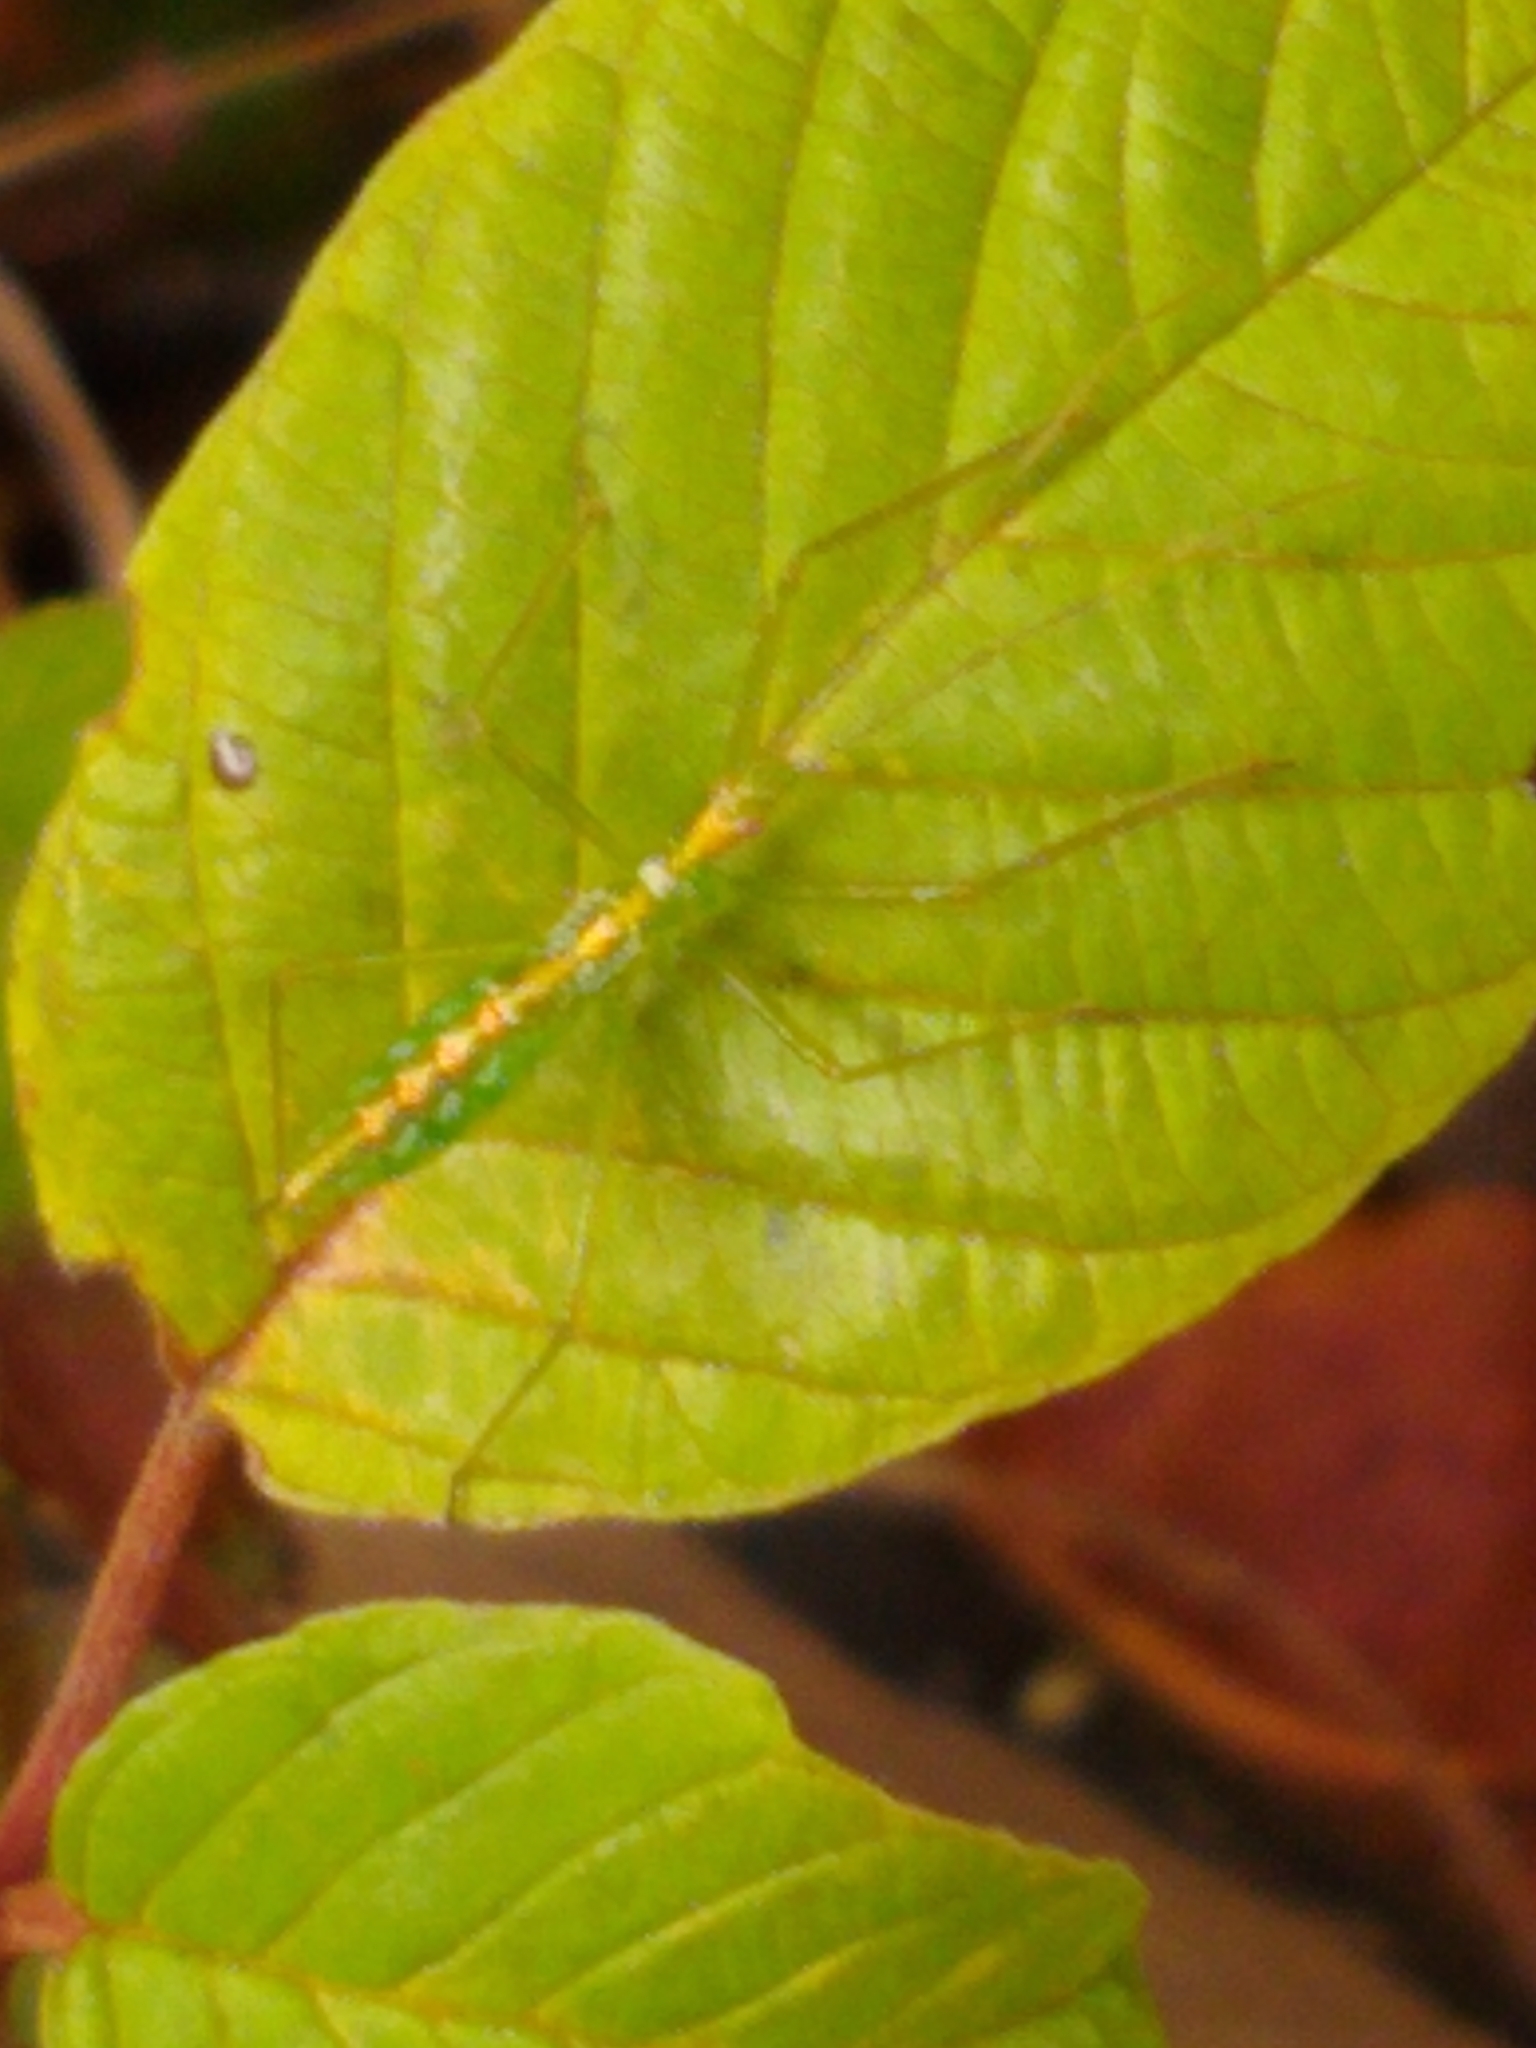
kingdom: Animalia
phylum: Arthropoda
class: Insecta
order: Hemiptera
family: Reduviidae
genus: Zelus
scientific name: Zelus luridus
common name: Pale green assassin bug
